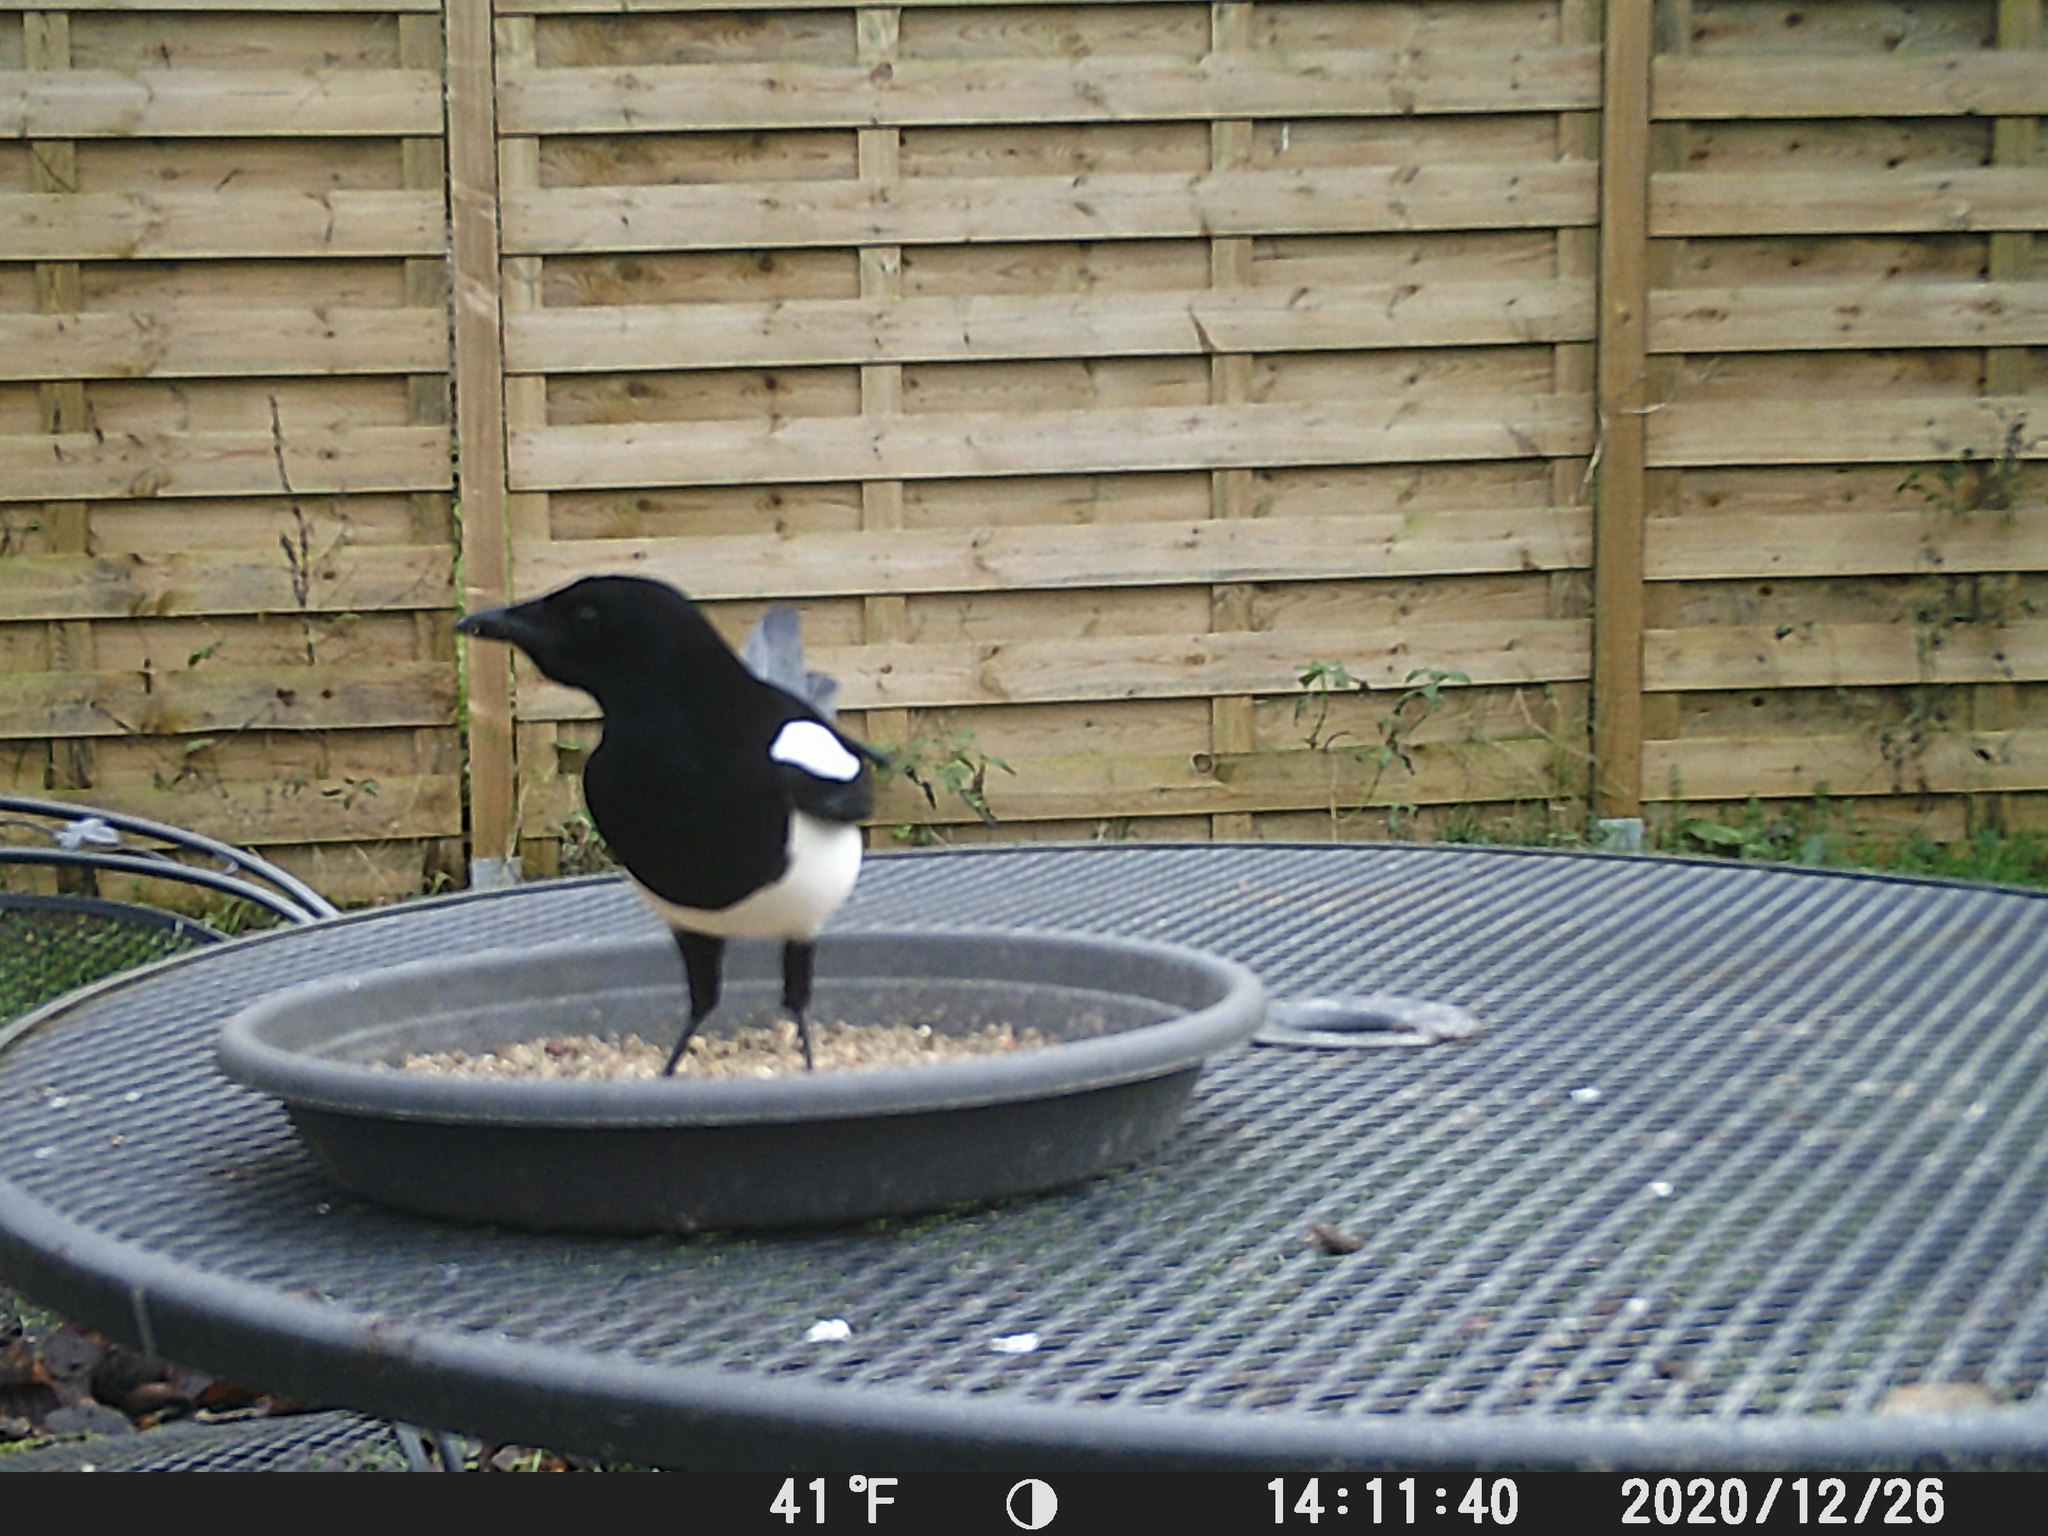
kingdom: Animalia
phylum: Chordata
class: Aves
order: Passeriformes
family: Corvidae
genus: Pica
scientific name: Pica pica
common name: Eurasian magpie
